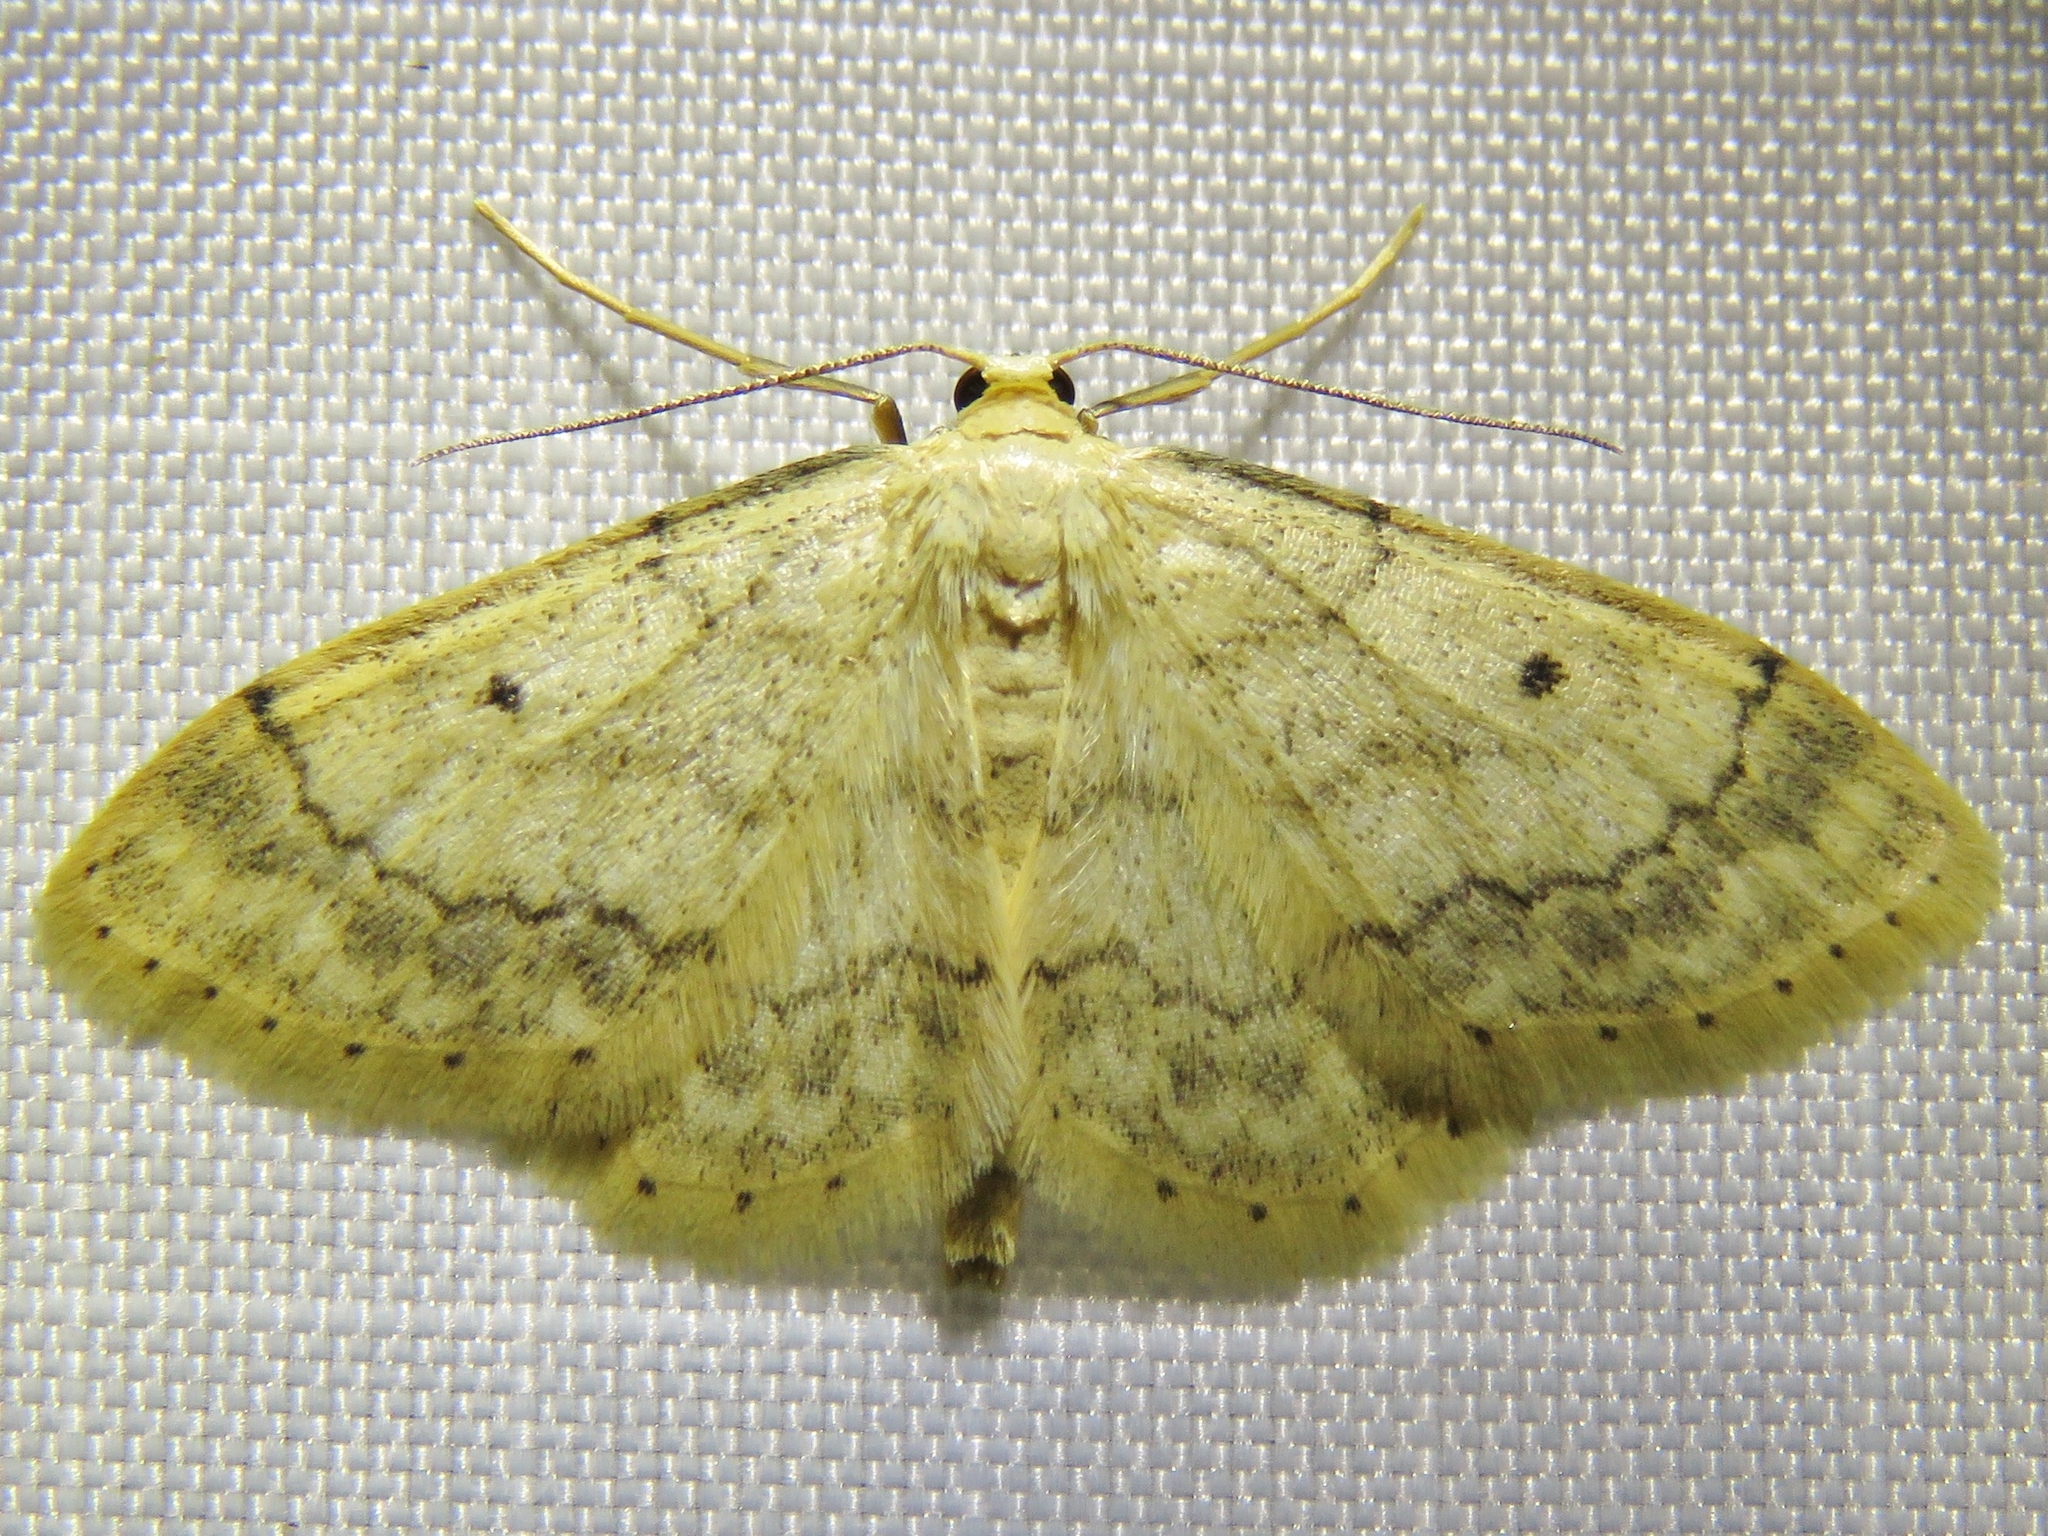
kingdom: Animalia
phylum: Arthropoda
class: Insecta
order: Lepidoptera
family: Geometridae
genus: Idaea
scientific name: Idaea biselata
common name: Small fan-footed wave
